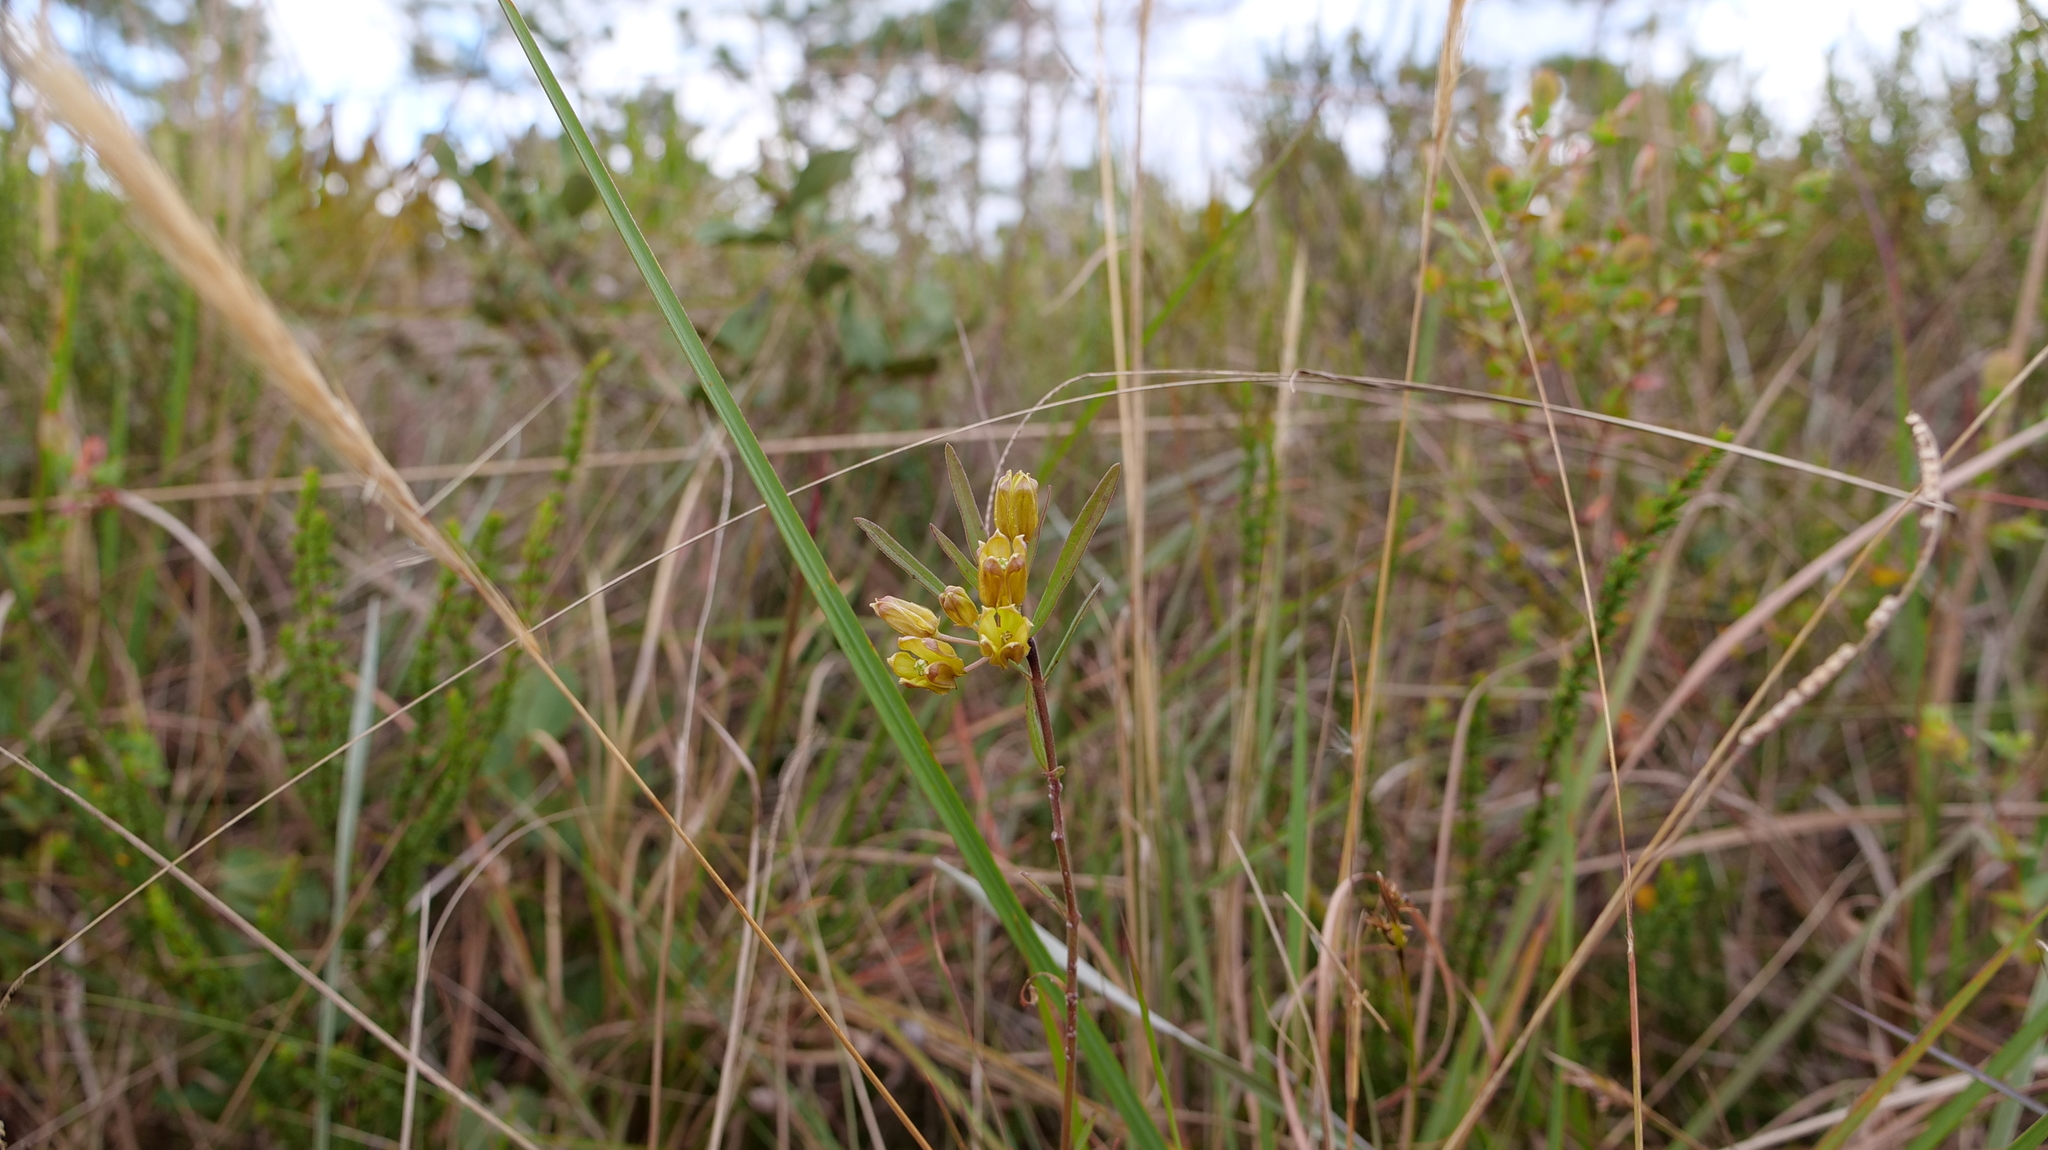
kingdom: Plantae
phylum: Tracheophyta
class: Magnoliopsida
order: Gentianales
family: Apocynaceae
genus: Asclepias
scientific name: Asclepias pedicellata
